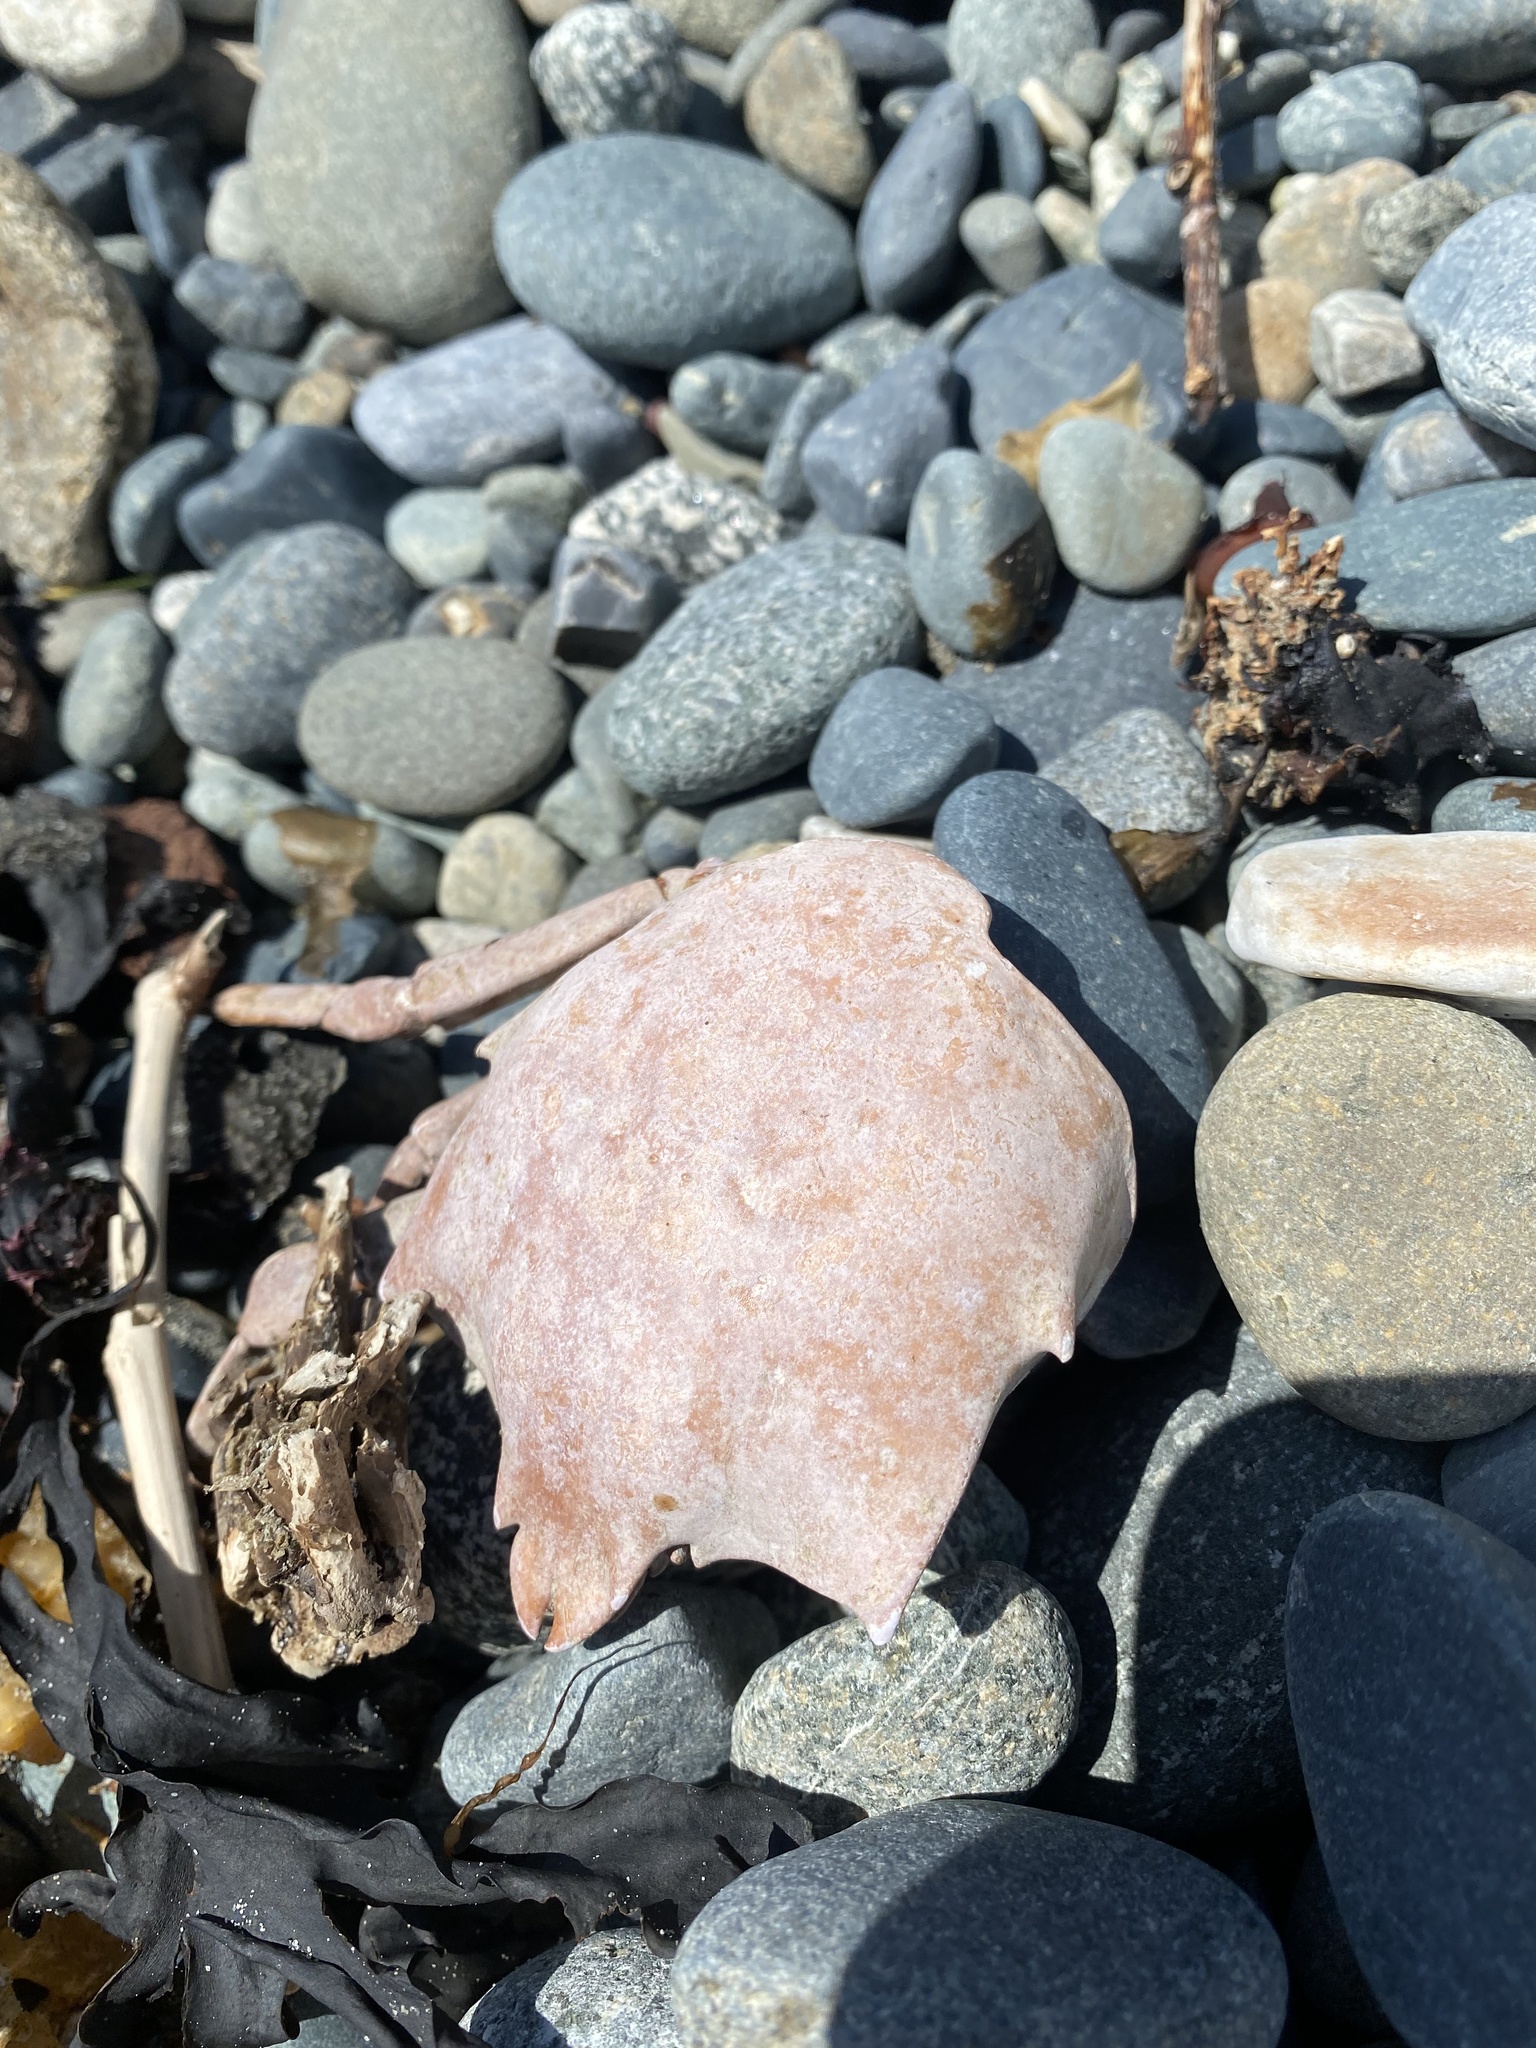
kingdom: Animalia
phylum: Arthropoda
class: Malacostraca
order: Decapoda
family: Epialtidae
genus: Pugettia
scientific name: Pugettia producta
